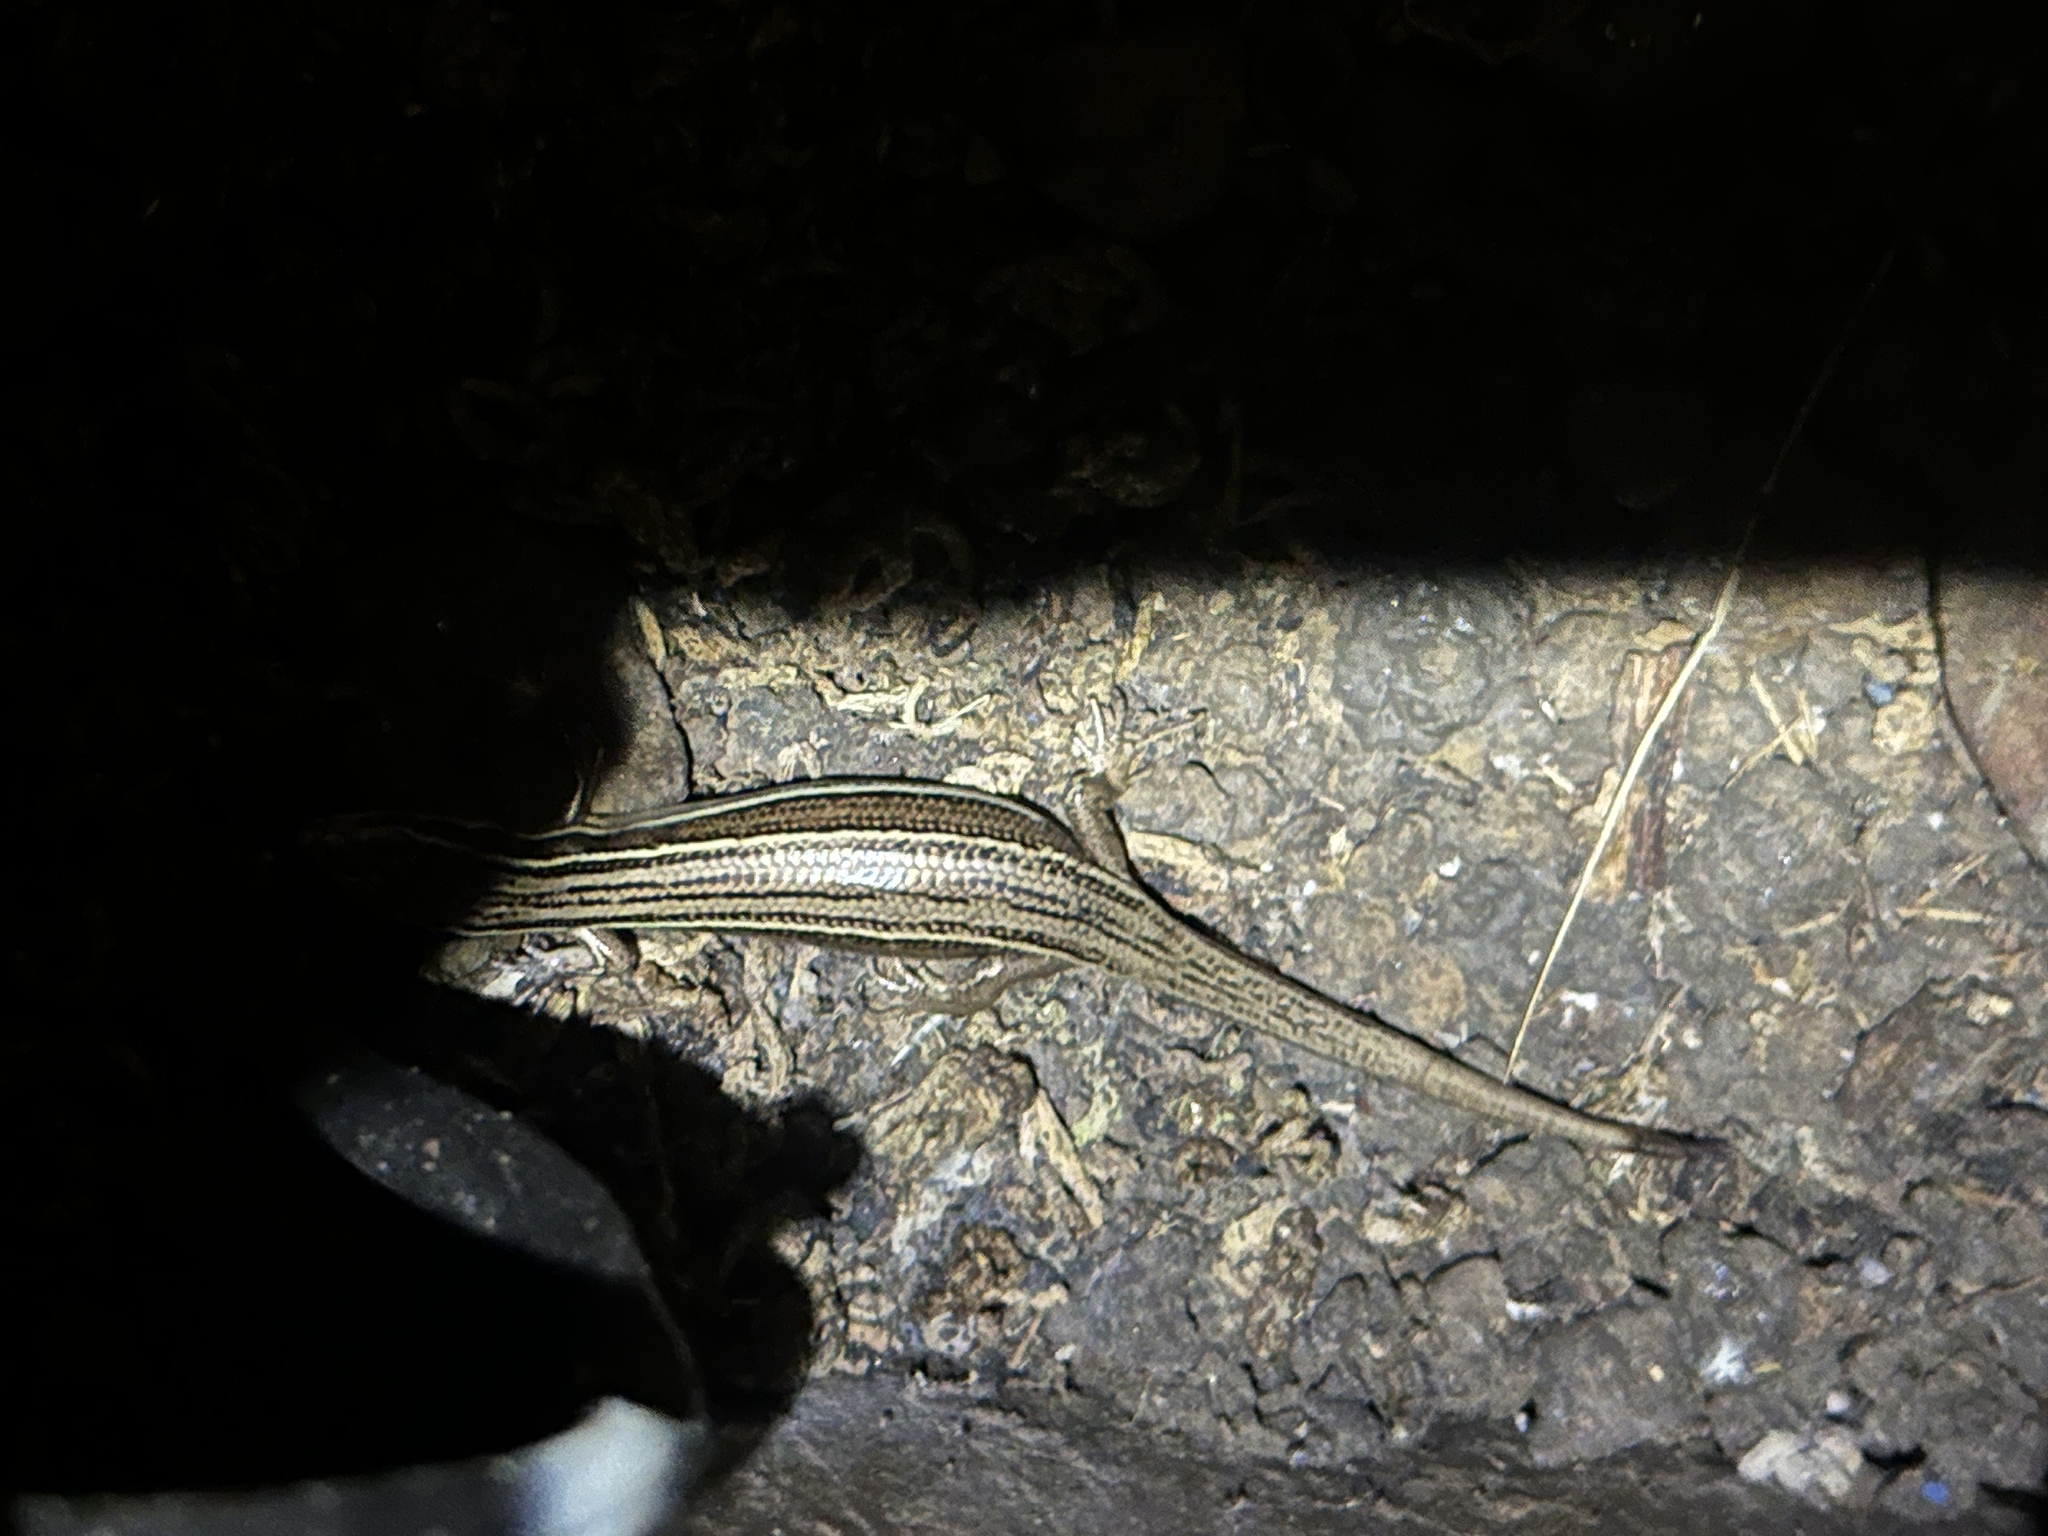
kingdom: Animalia
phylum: Chordata
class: Squamata
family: Scincidae
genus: Oligosoma
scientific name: Oligosoma moco
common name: Moco skink
